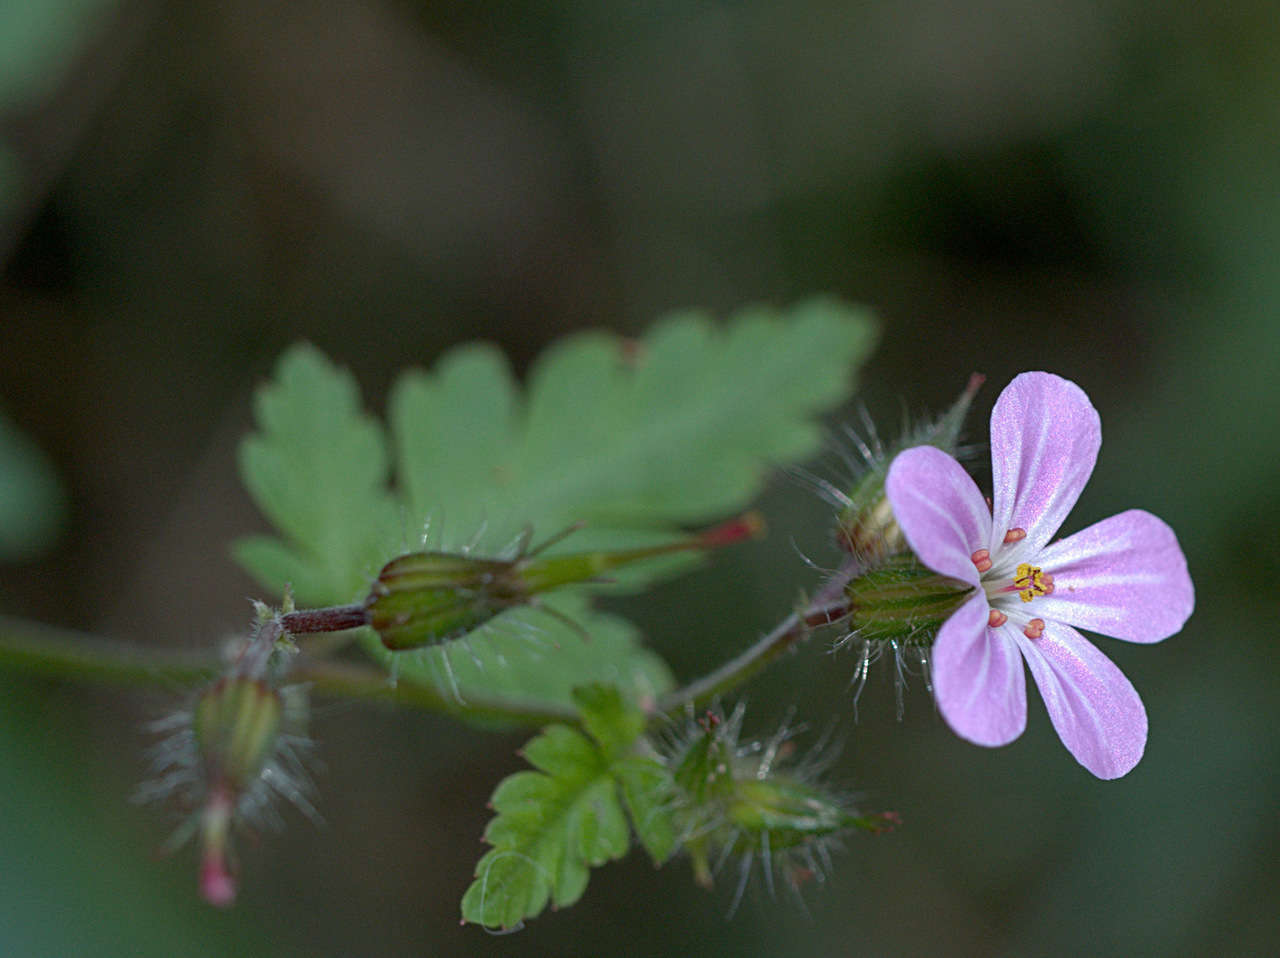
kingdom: Plantae
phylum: Tracheophyta
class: Magnoliopsida
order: Geraniales
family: Geraniaceae
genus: Geranium
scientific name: Geranium robertianum
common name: Herb-robert
